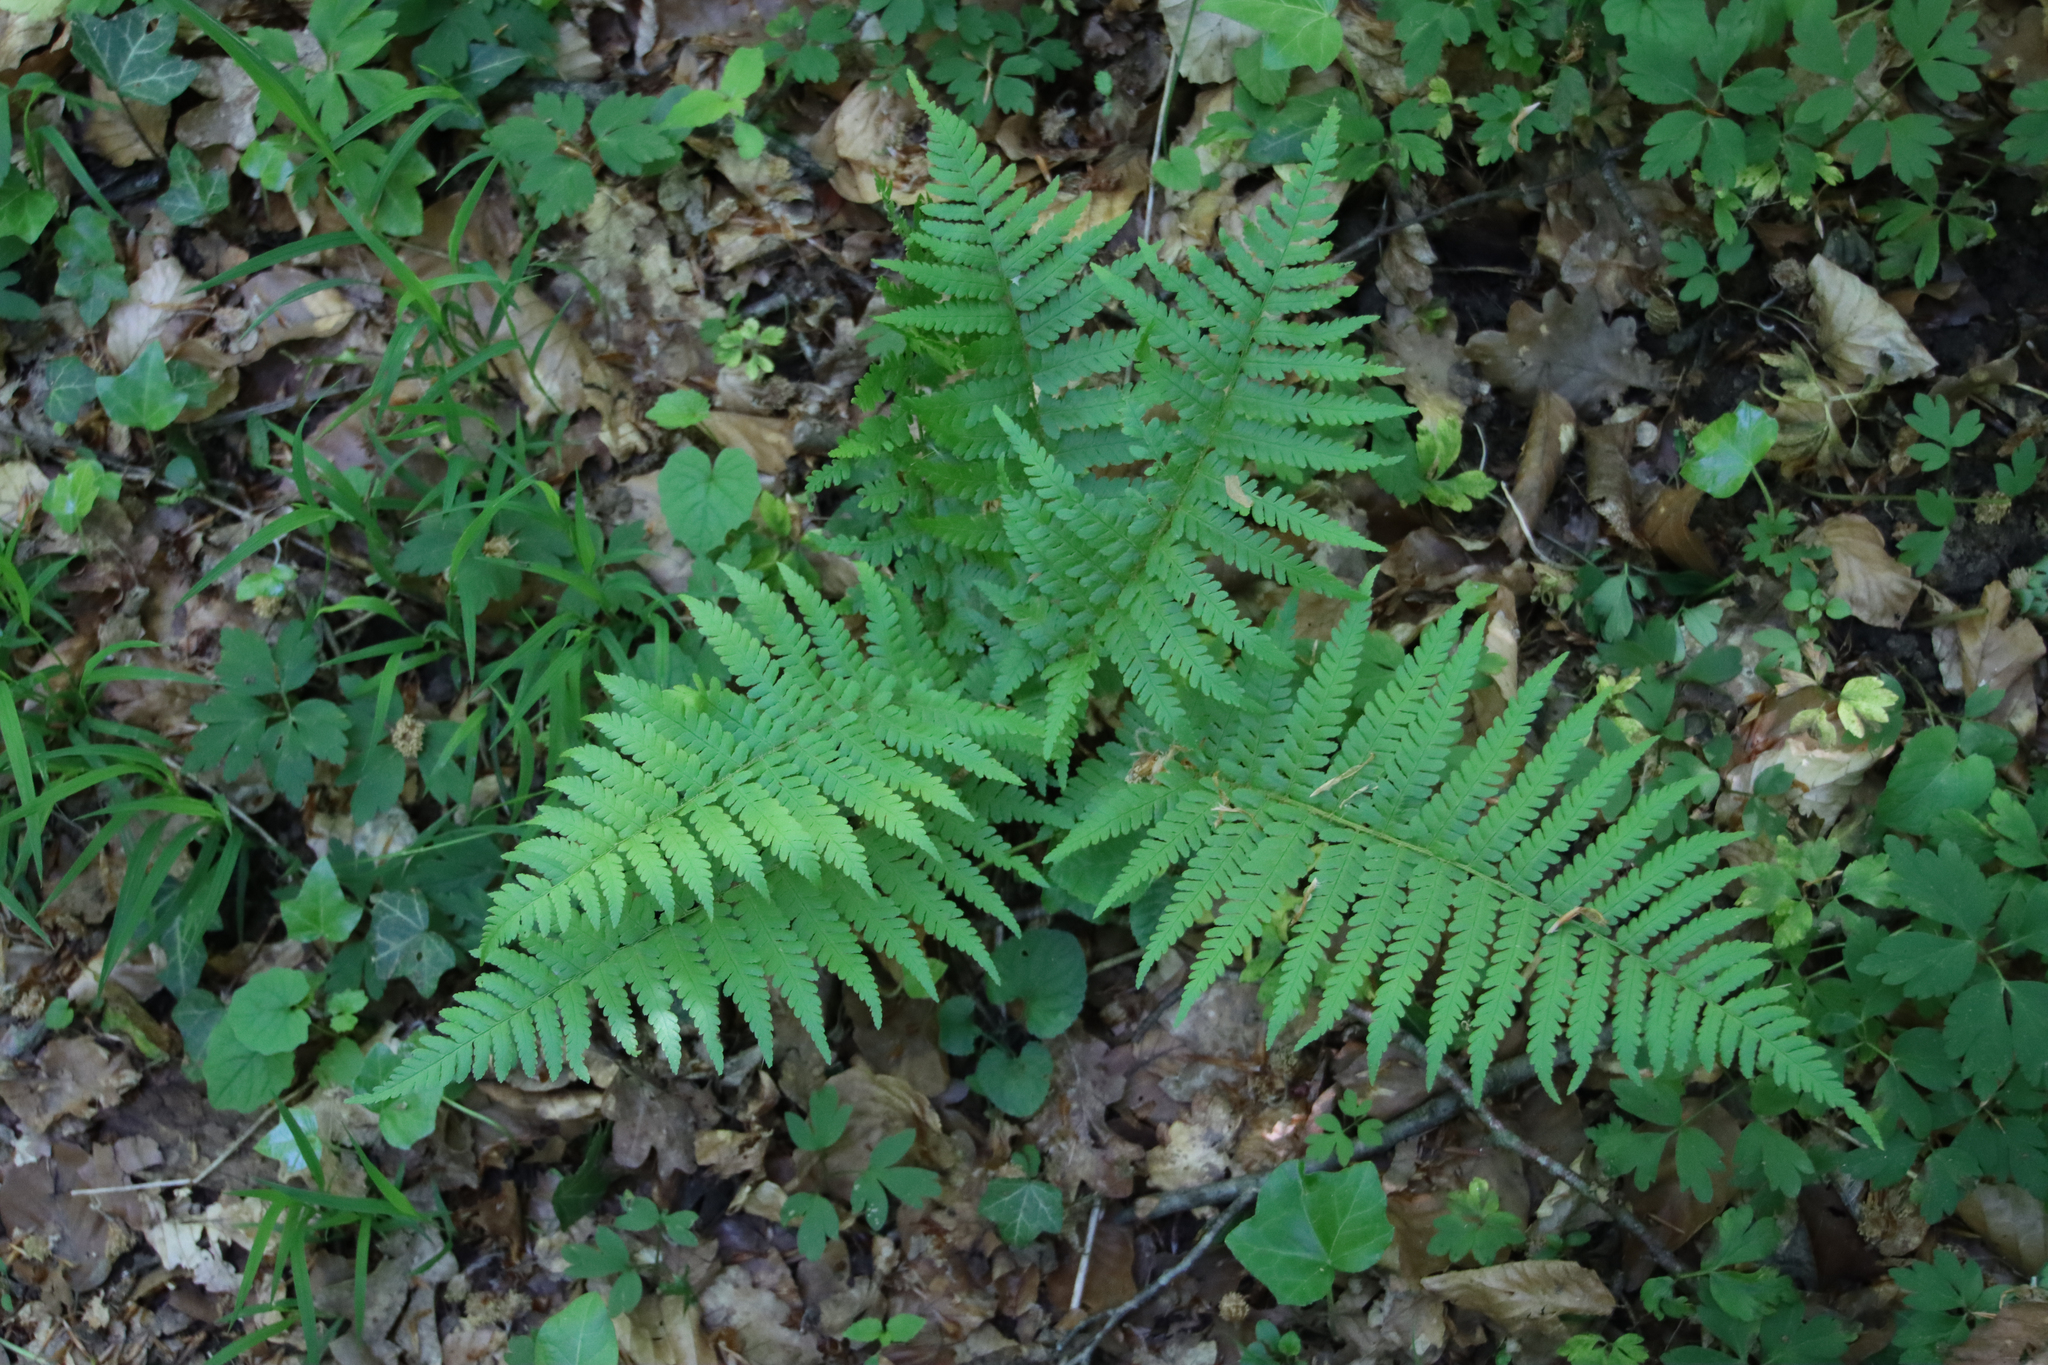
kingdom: Plantae
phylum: Tracheophyta
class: Polypodiopsida
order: Polypodiales
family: Dryopteridaceae
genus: Dryopteris
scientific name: Dryopteris filix-mas
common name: Male fern
